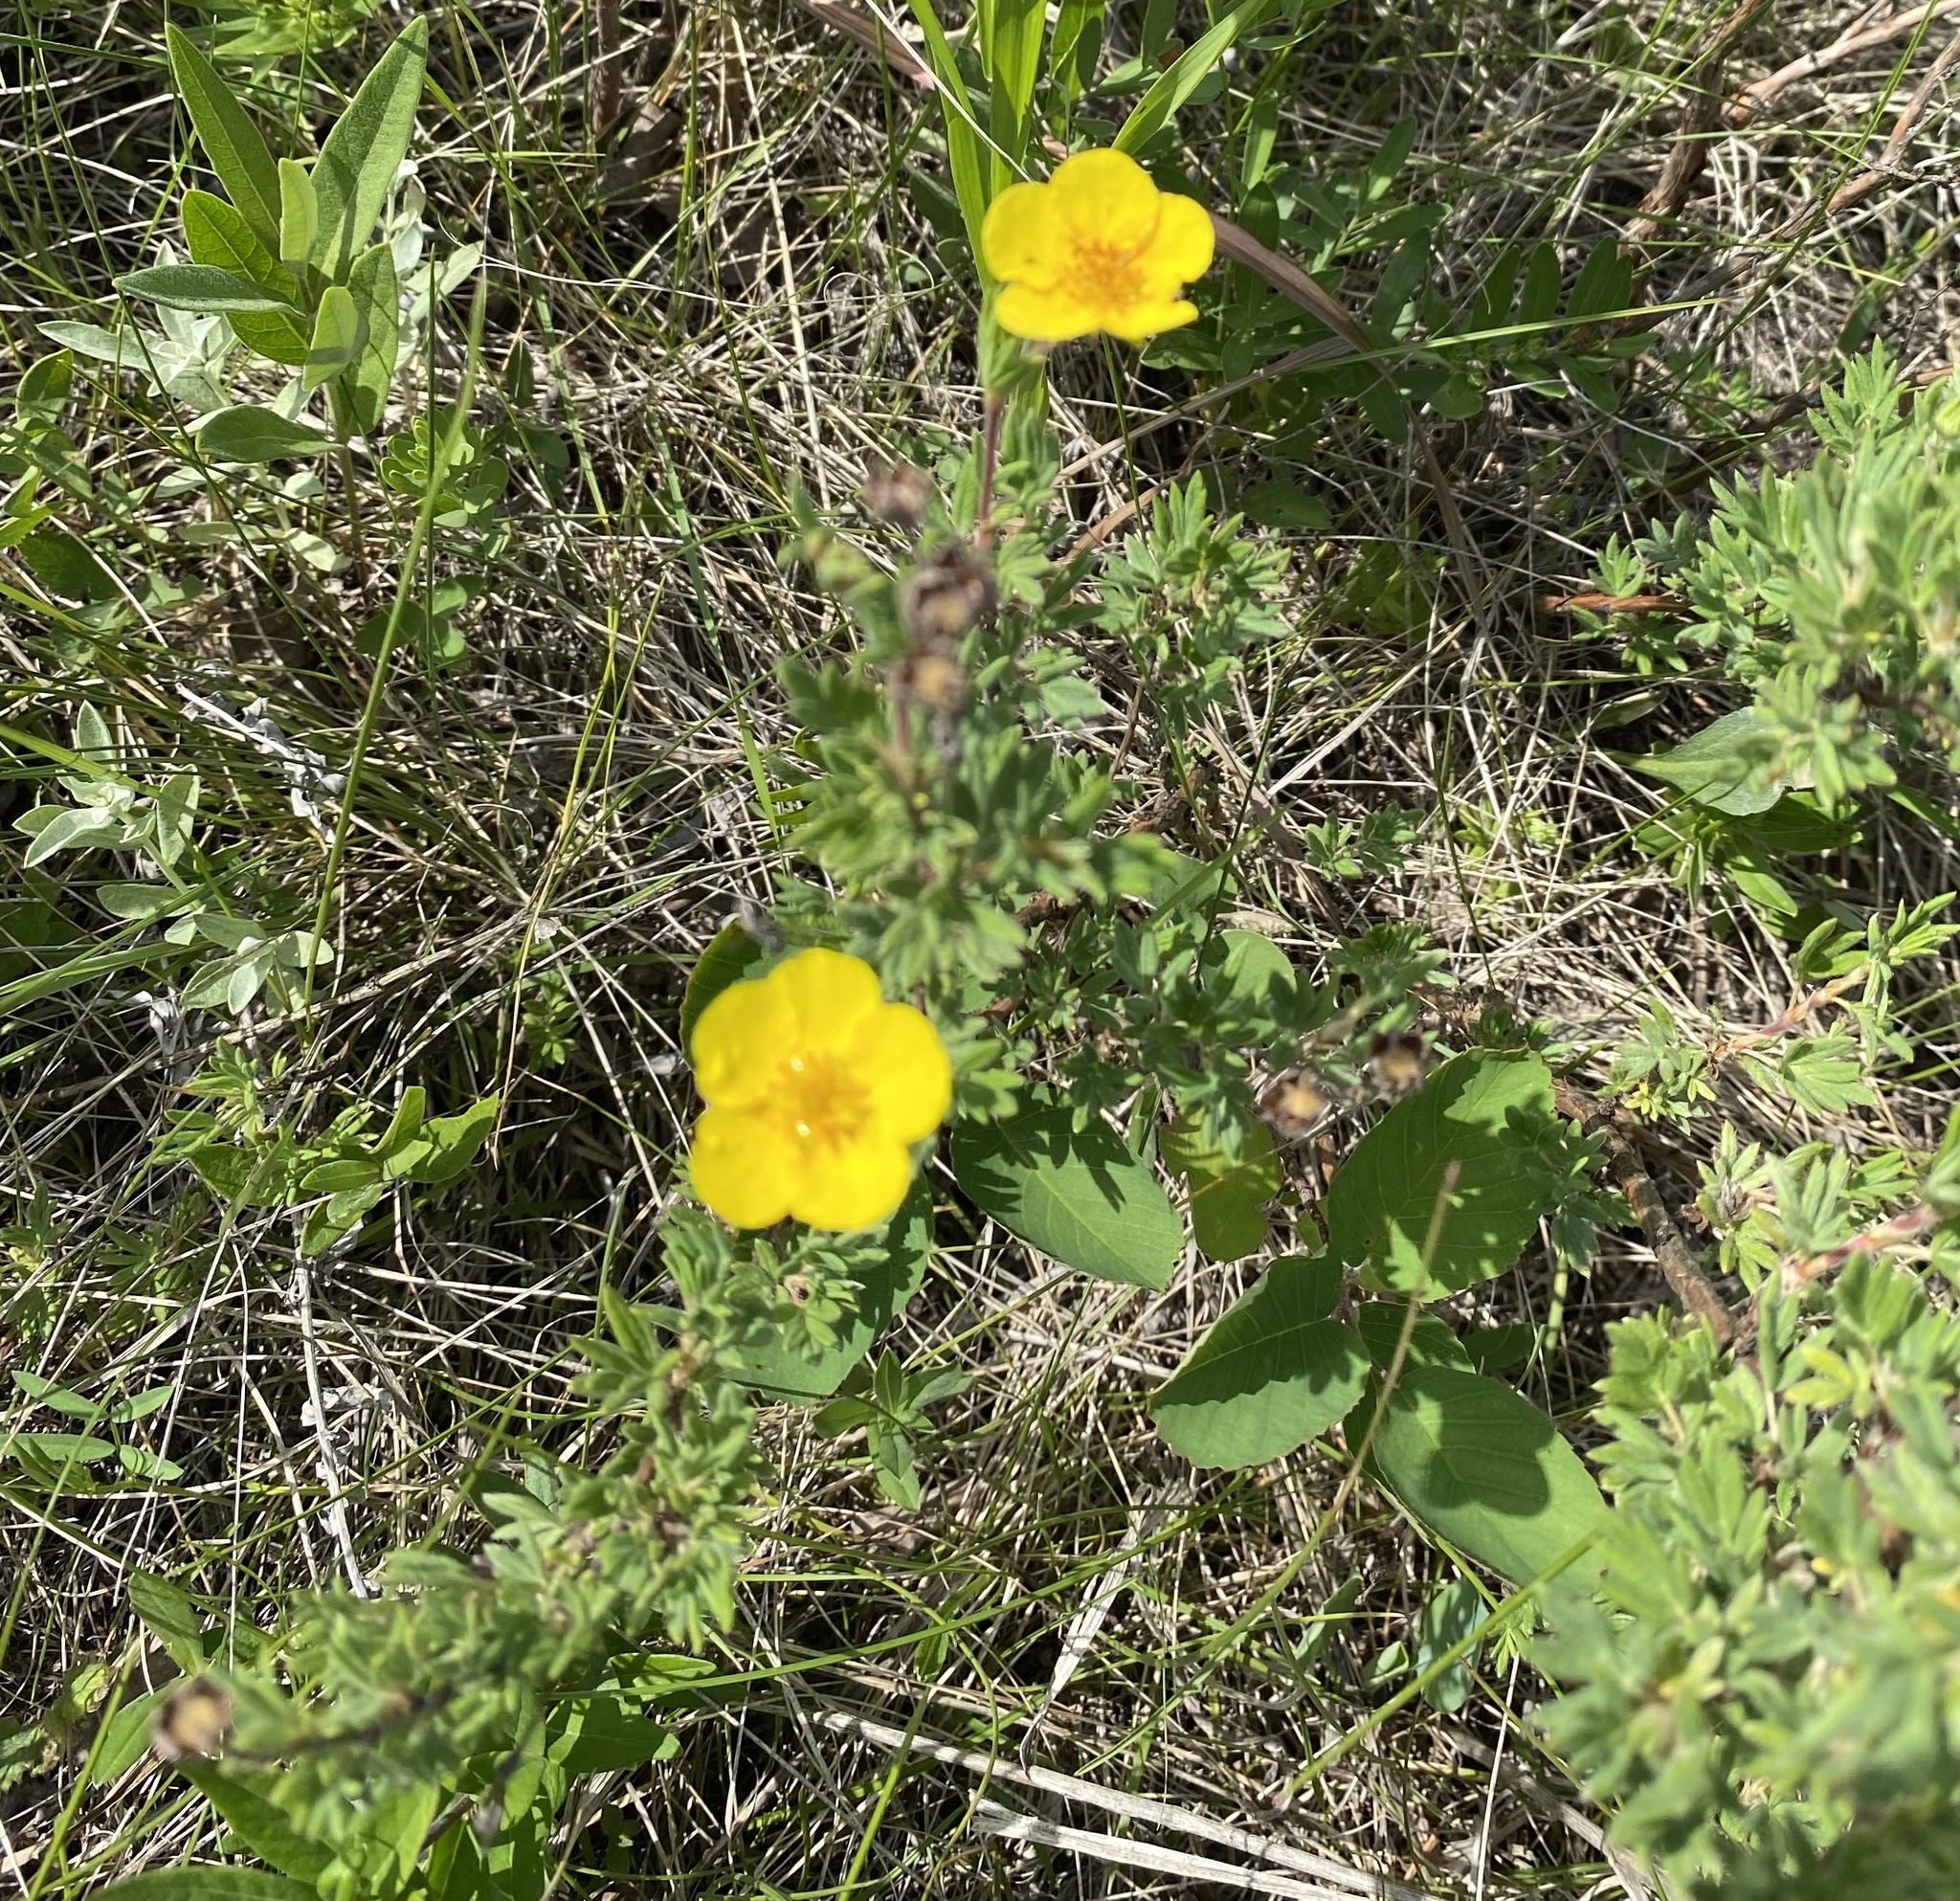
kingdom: Plantae
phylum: Tracheophyta
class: Magnoliopsida
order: Rosales
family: Rosaceae
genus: Dasiphora
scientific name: Dasiphora fruticosa
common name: Shrubby cinquefoil
